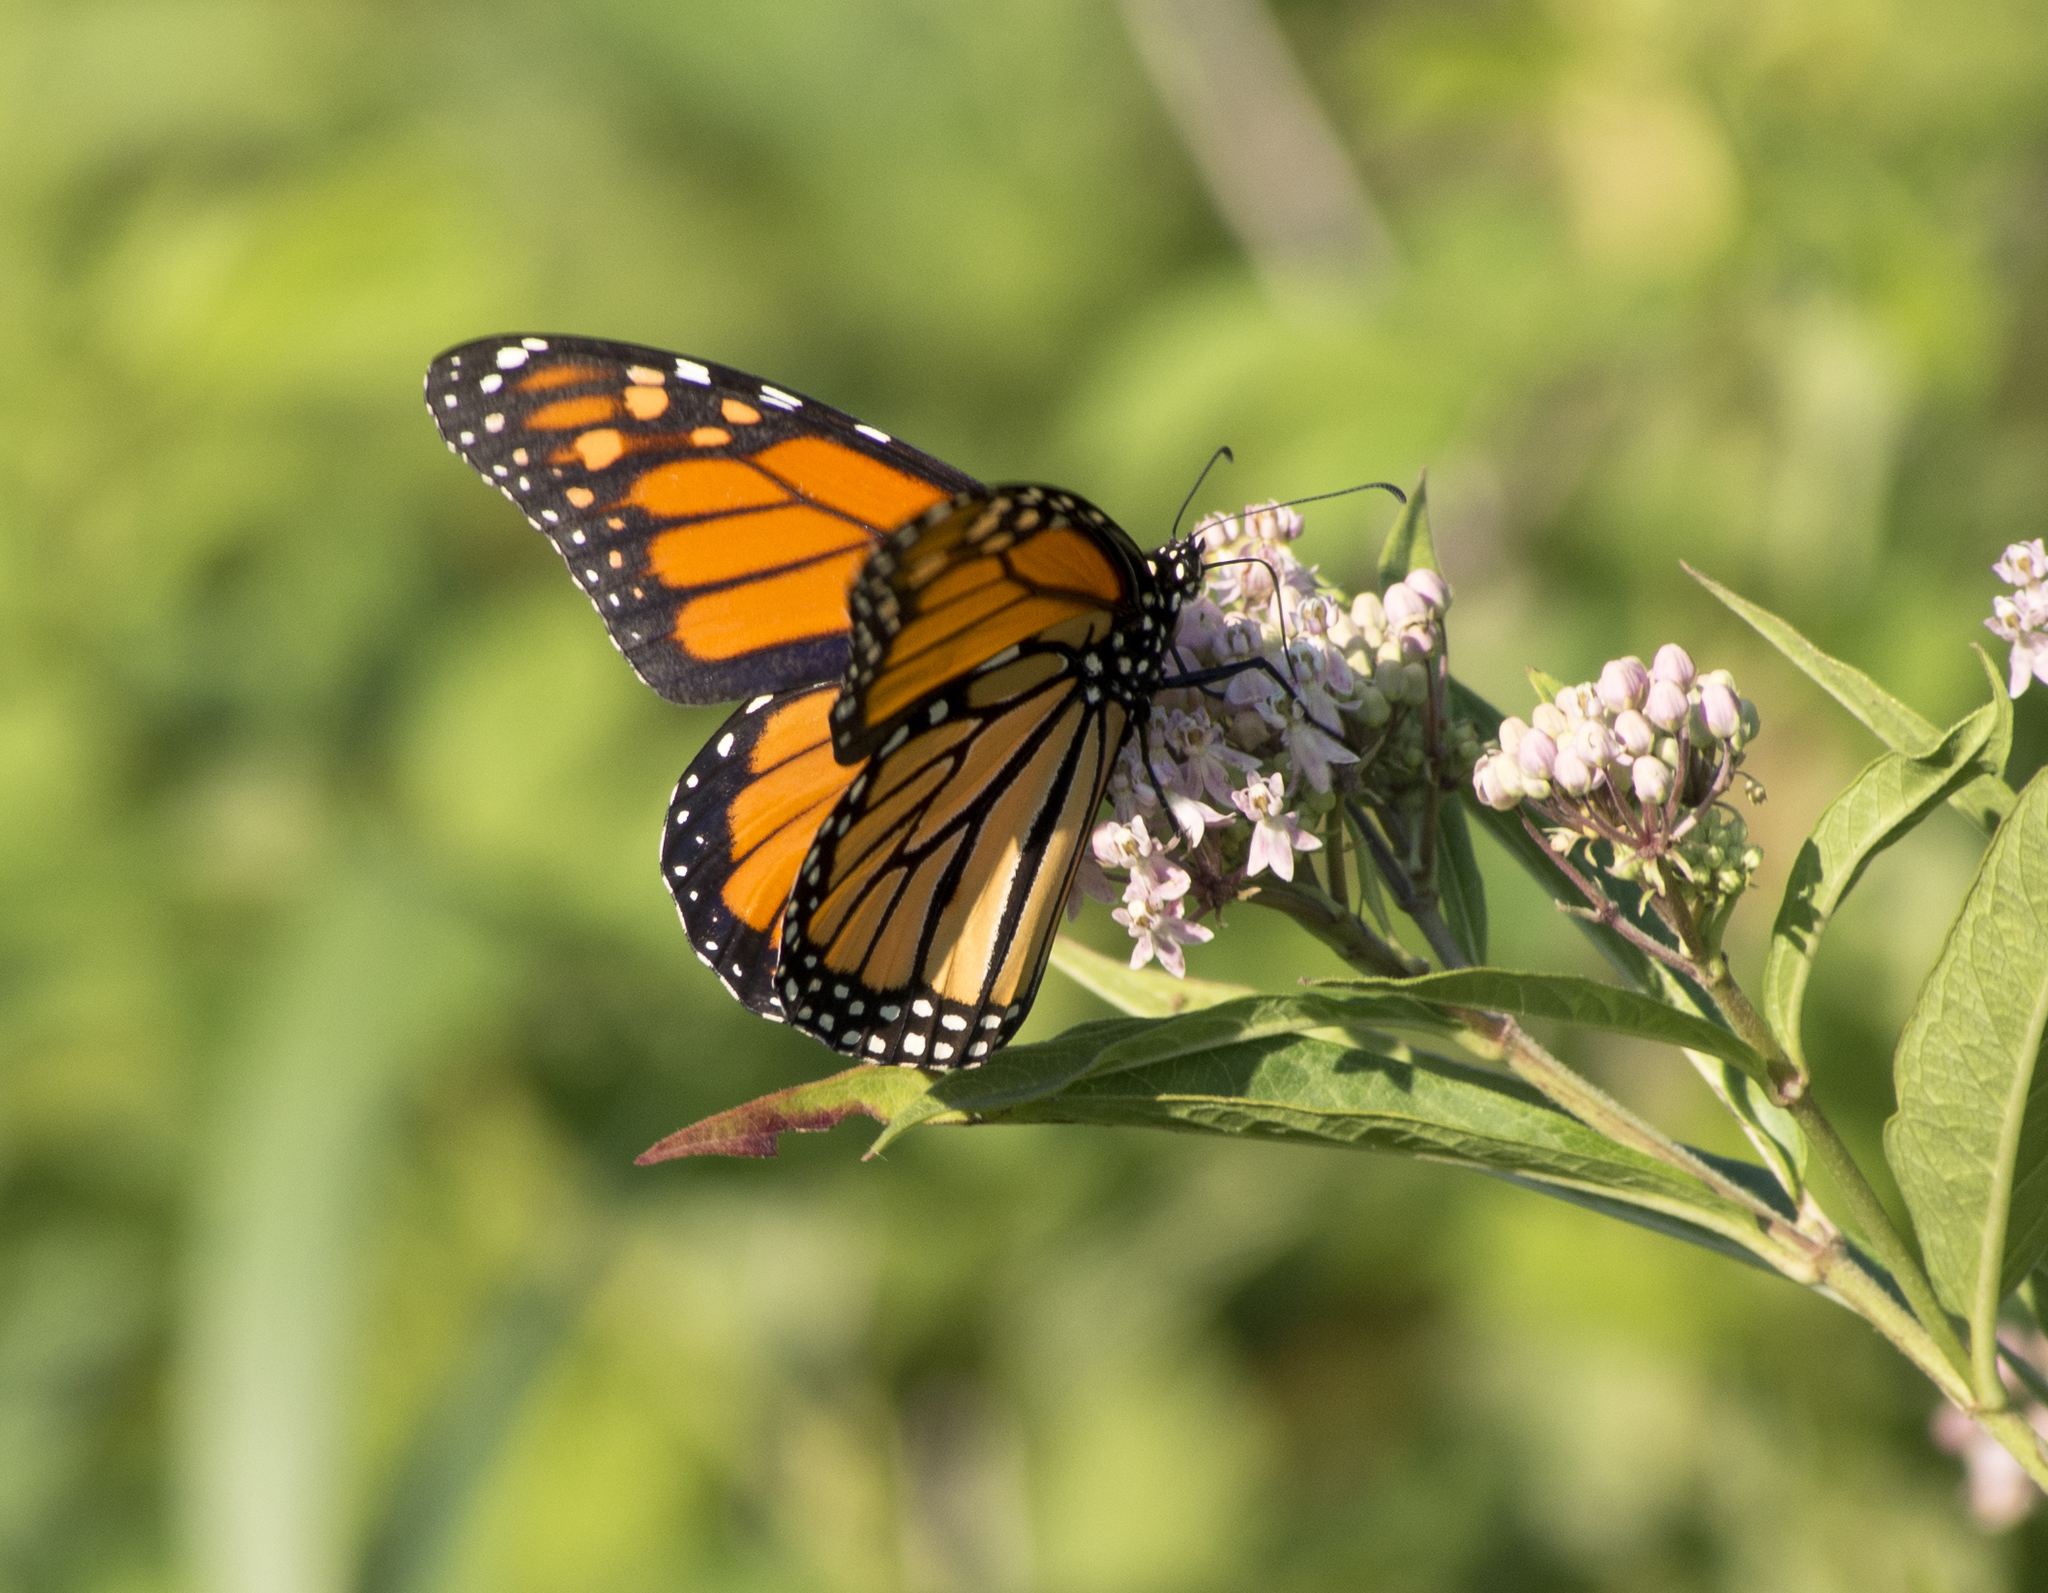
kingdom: Animalia
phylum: Arthropoda
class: Insecta
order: Lepidoptera
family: Nymphalidae
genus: Danaus
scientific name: Danaus plexippus
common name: Monarch
